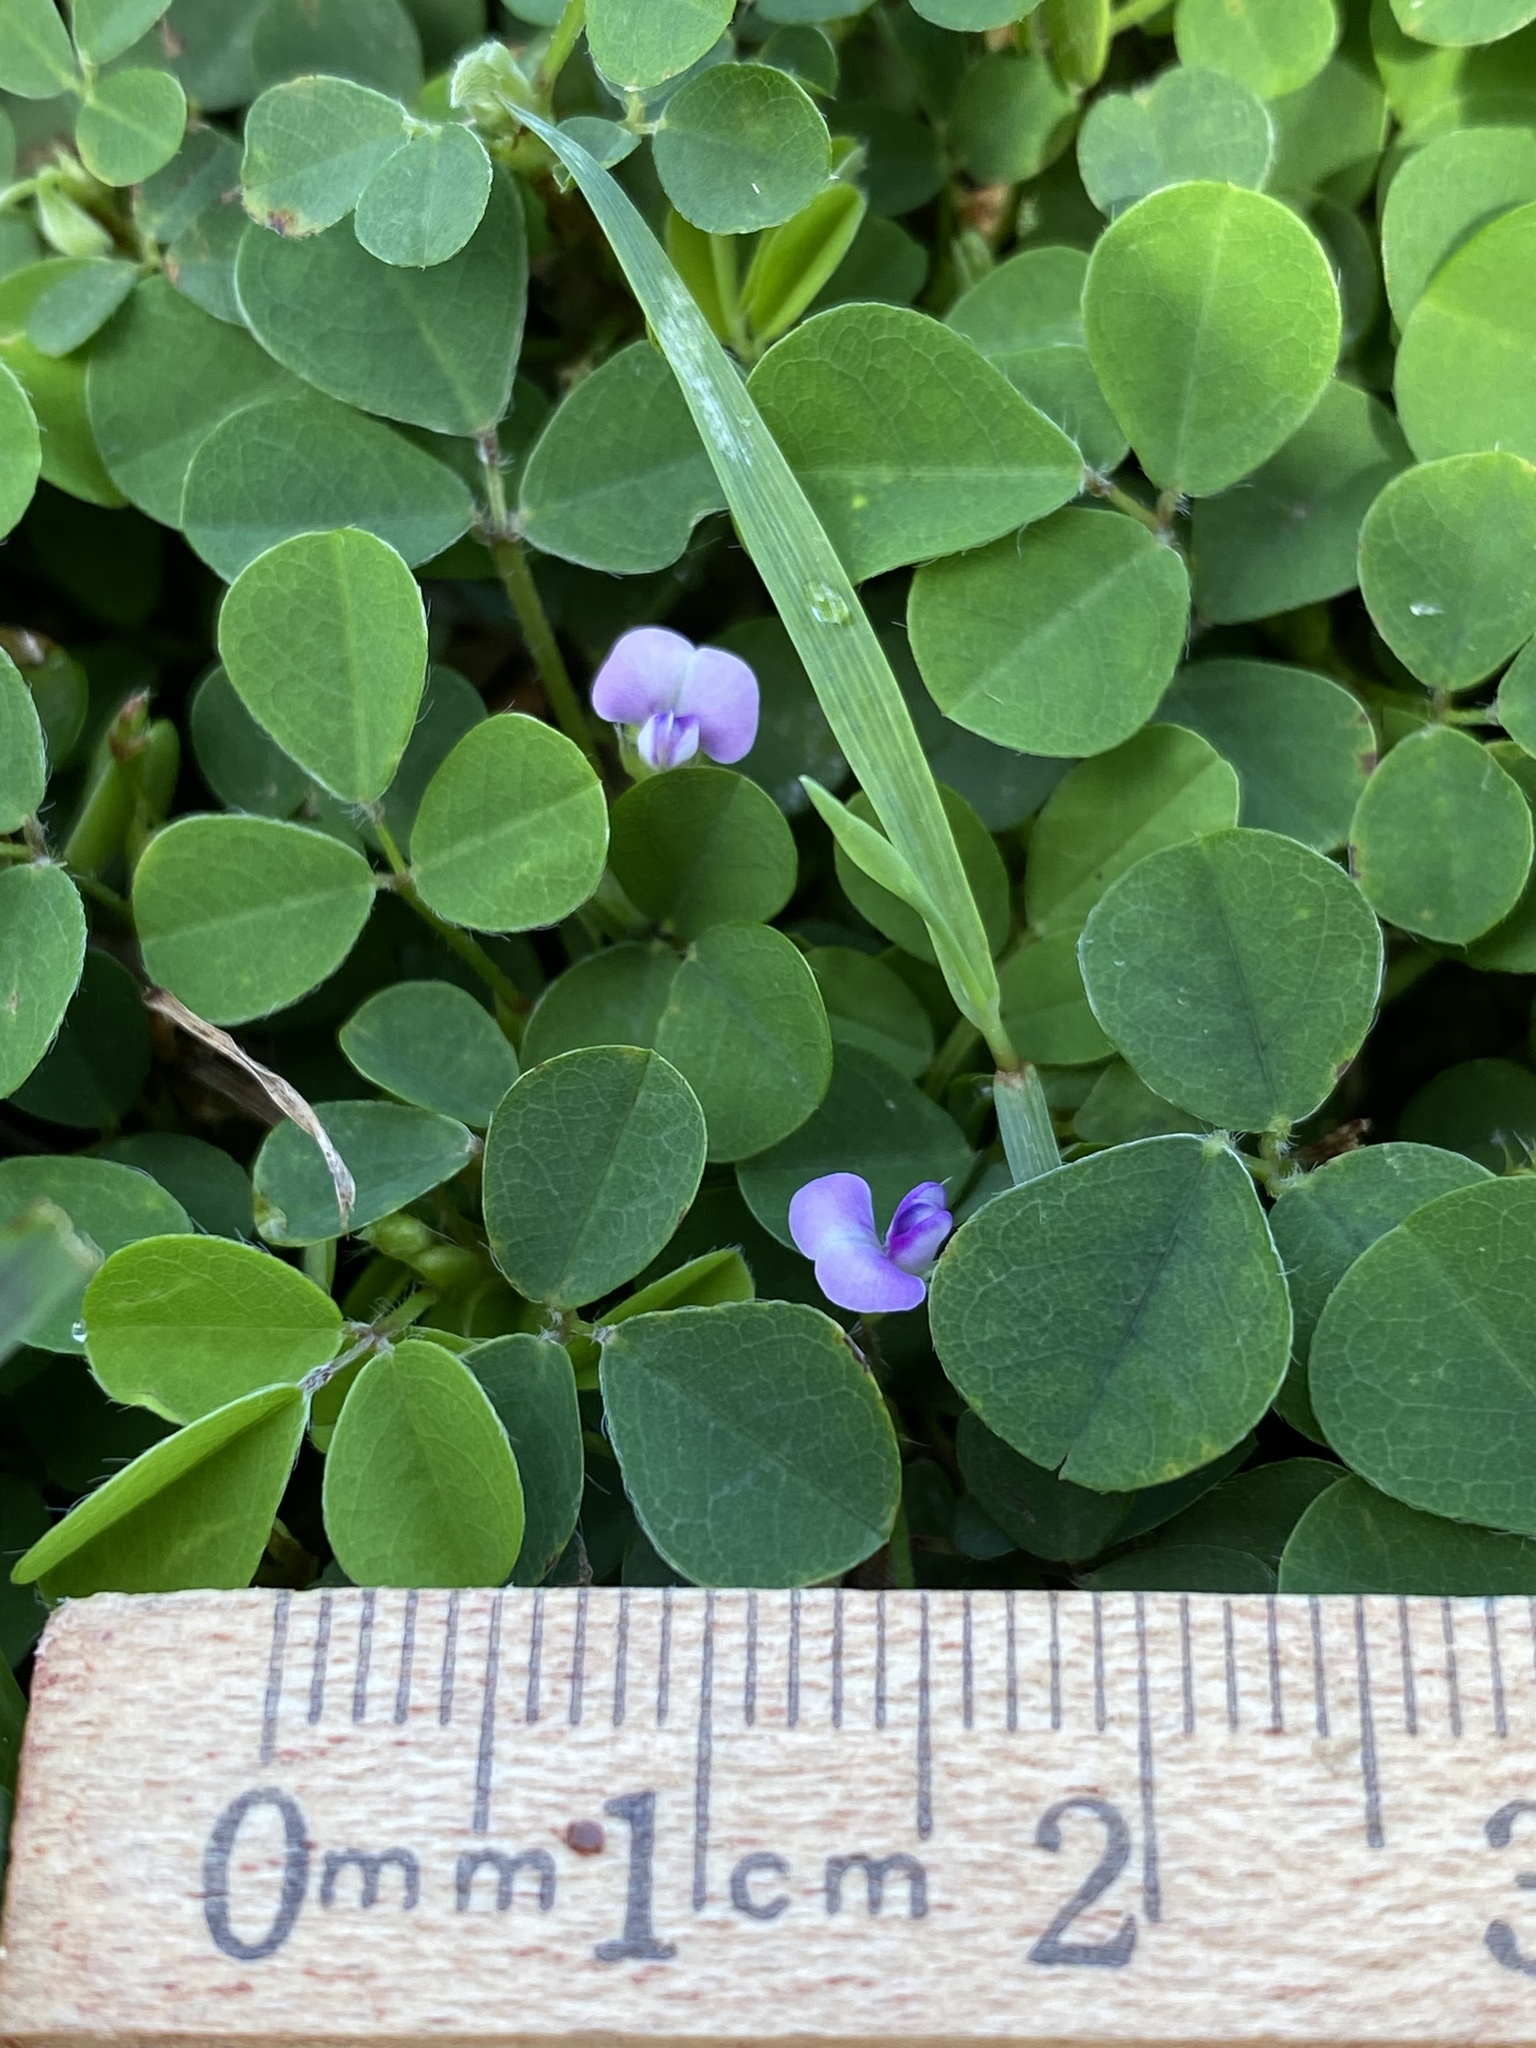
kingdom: Plantae
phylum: Tracheophyta
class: Magnoliopsida
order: Fabales
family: Fabaceae
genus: Grona
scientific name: Grona triflora
